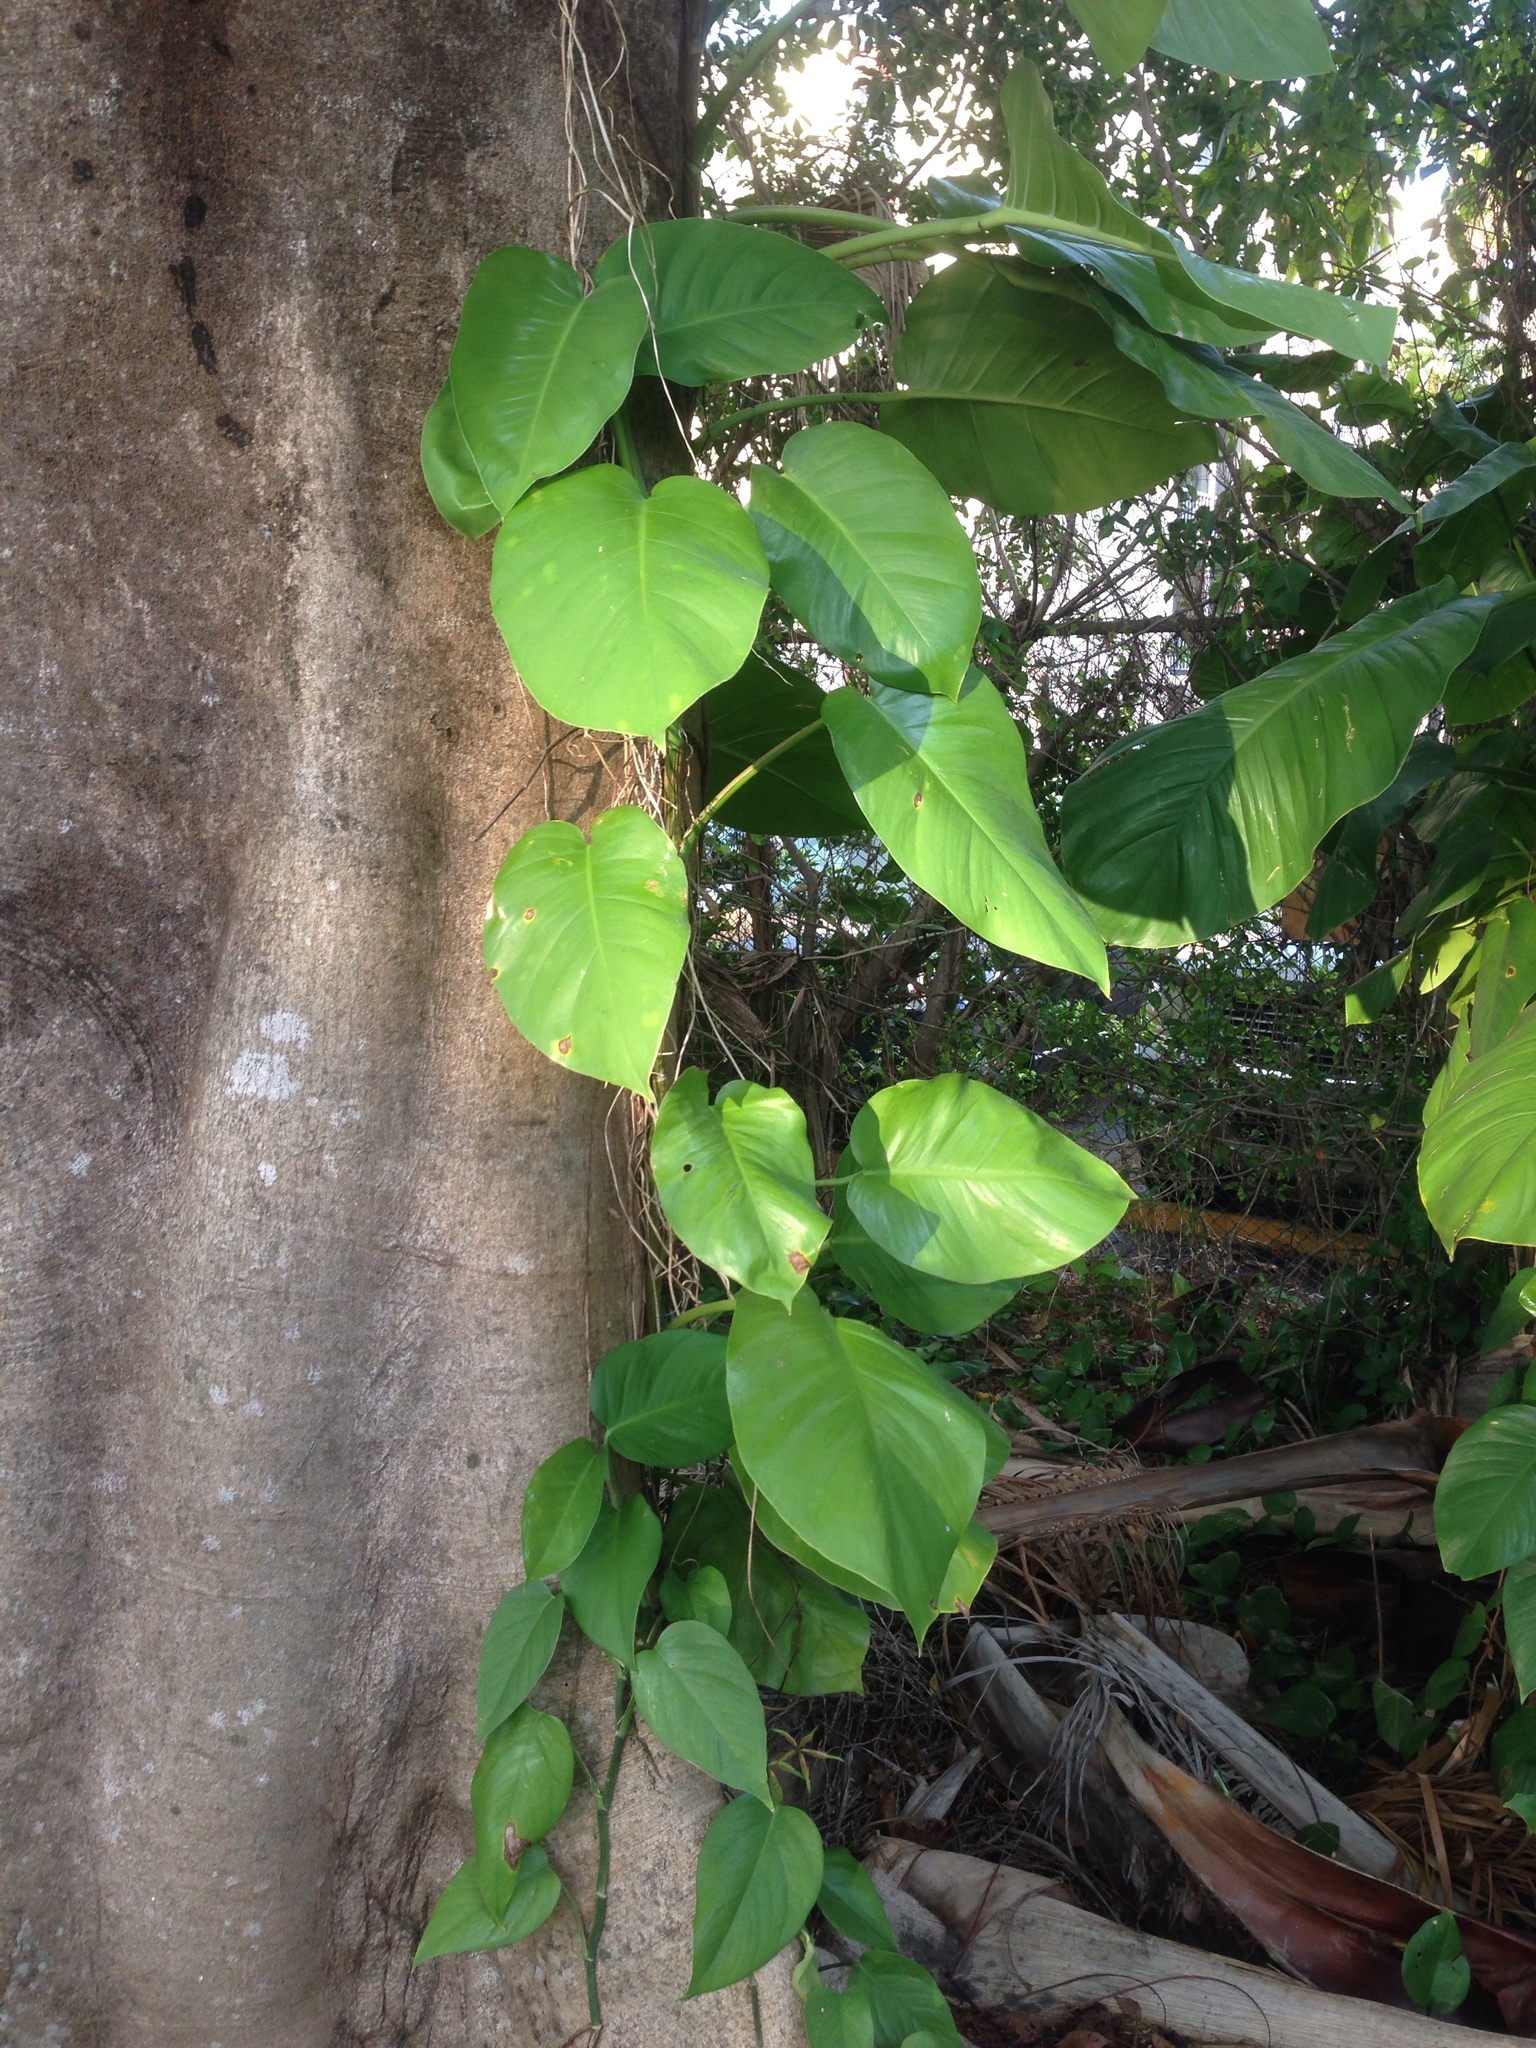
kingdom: Plantae
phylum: Tracheophyta
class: Liliopsida
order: Alismatales
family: Araceae
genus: Epipremnum
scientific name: Epipremnum aureum
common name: Golden hunter's-robe
